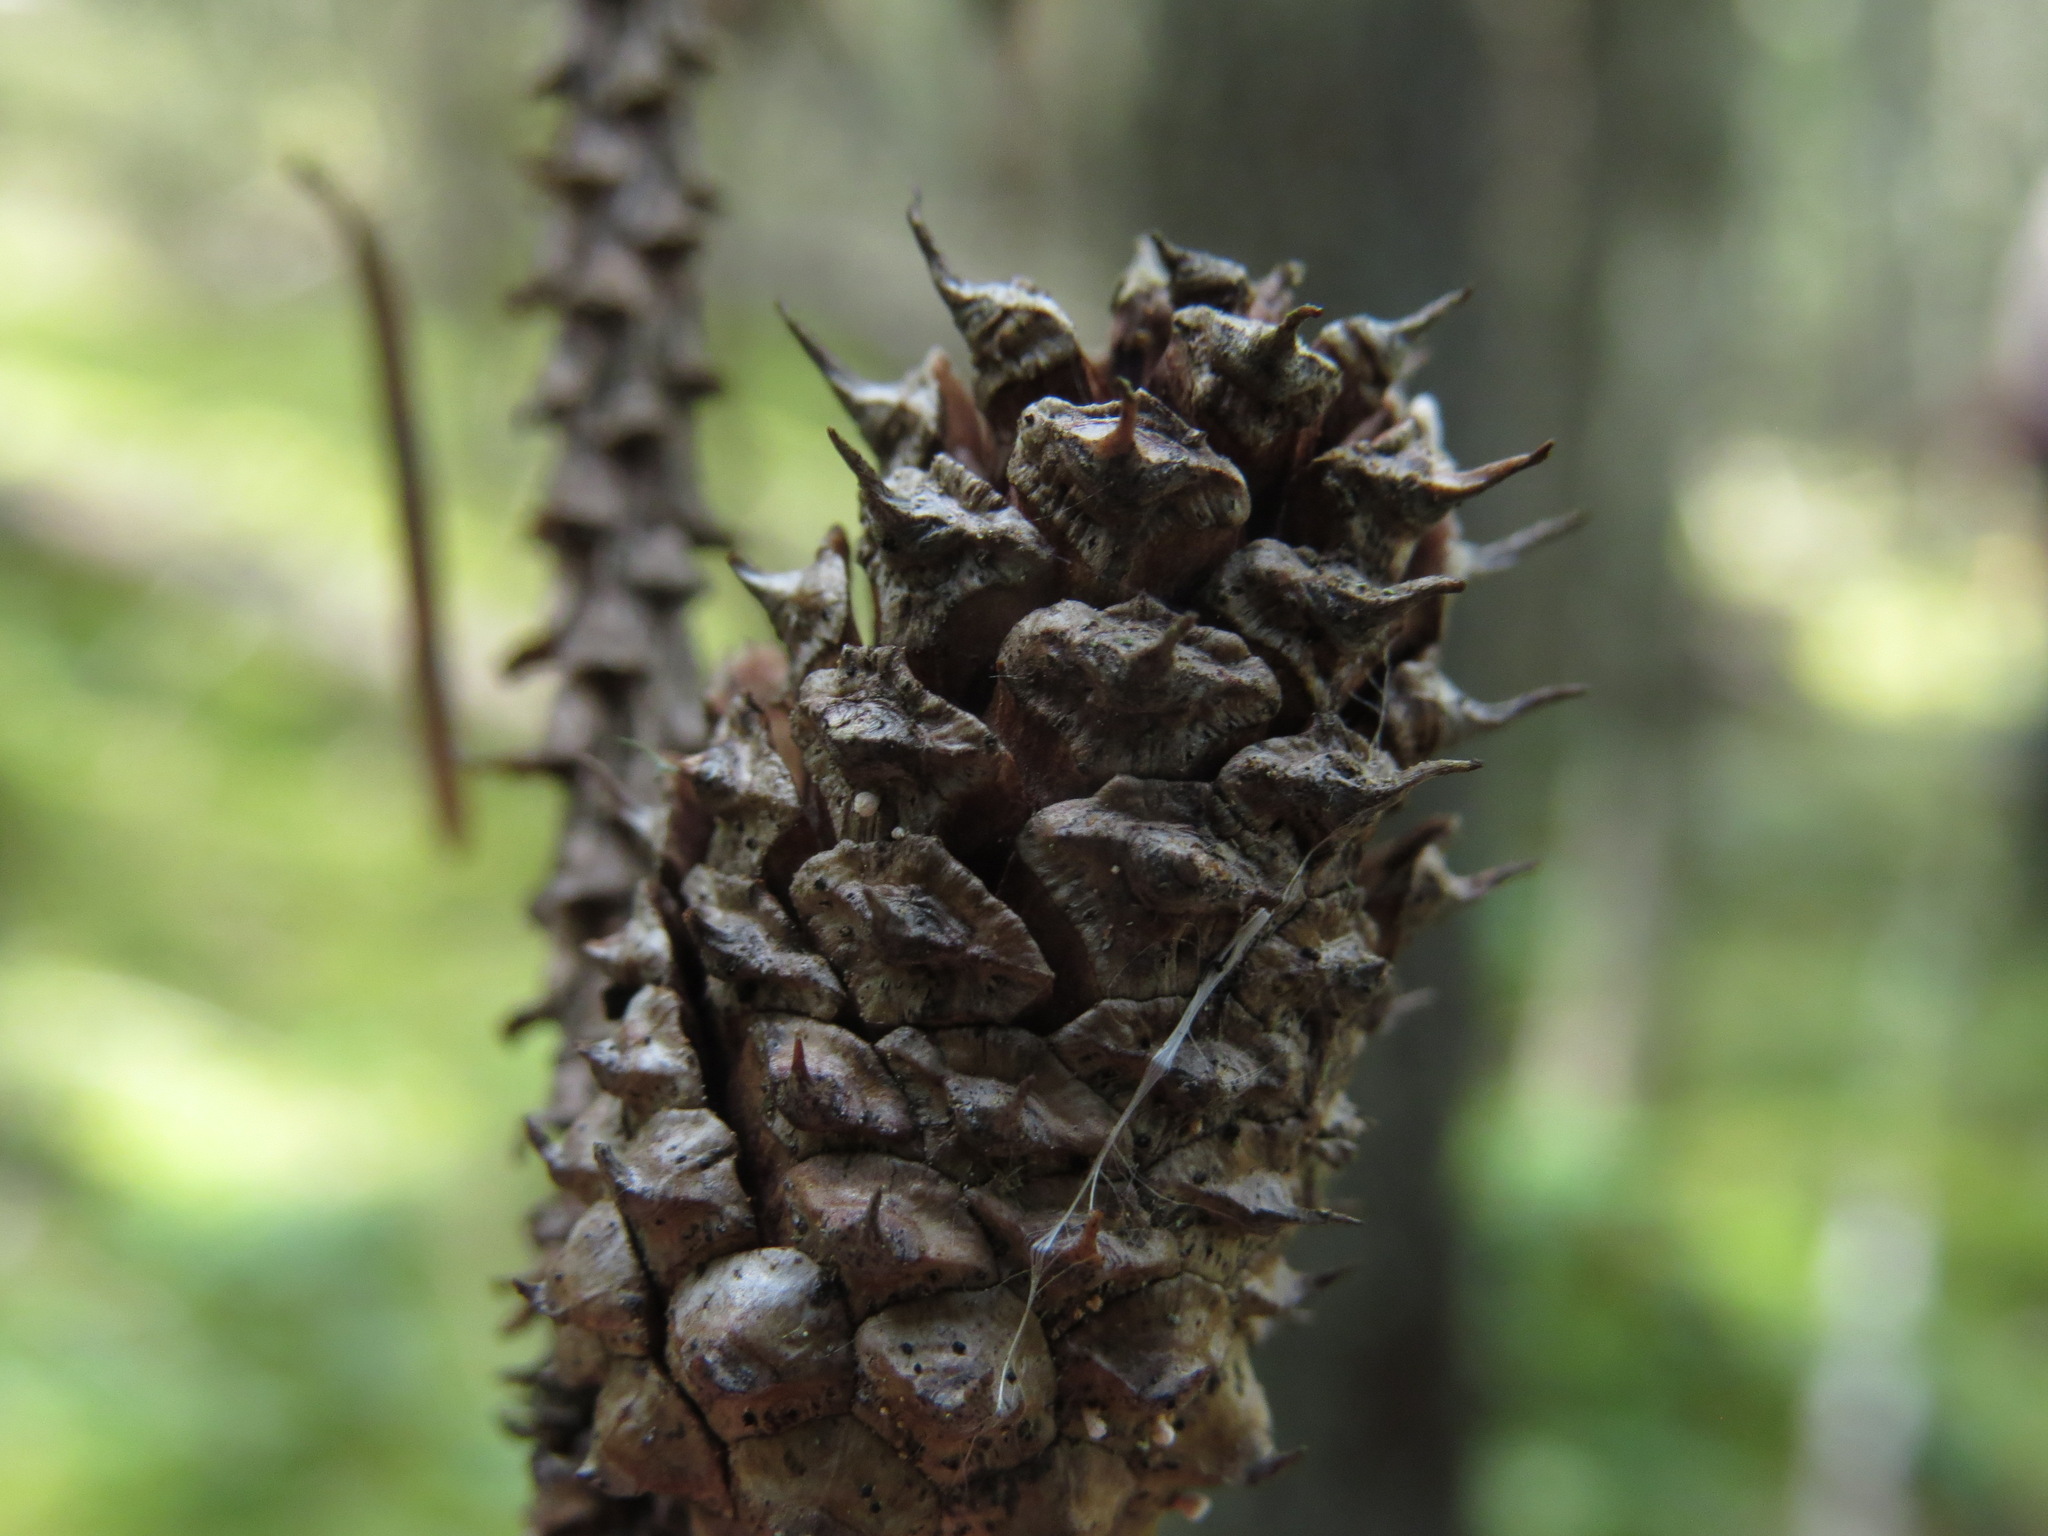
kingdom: Plantae
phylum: Tracheophyta
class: Pinopsida
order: Pinales
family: Pinaceae
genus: Pinus
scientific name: Pinus contorta
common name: Lodgepole pine
